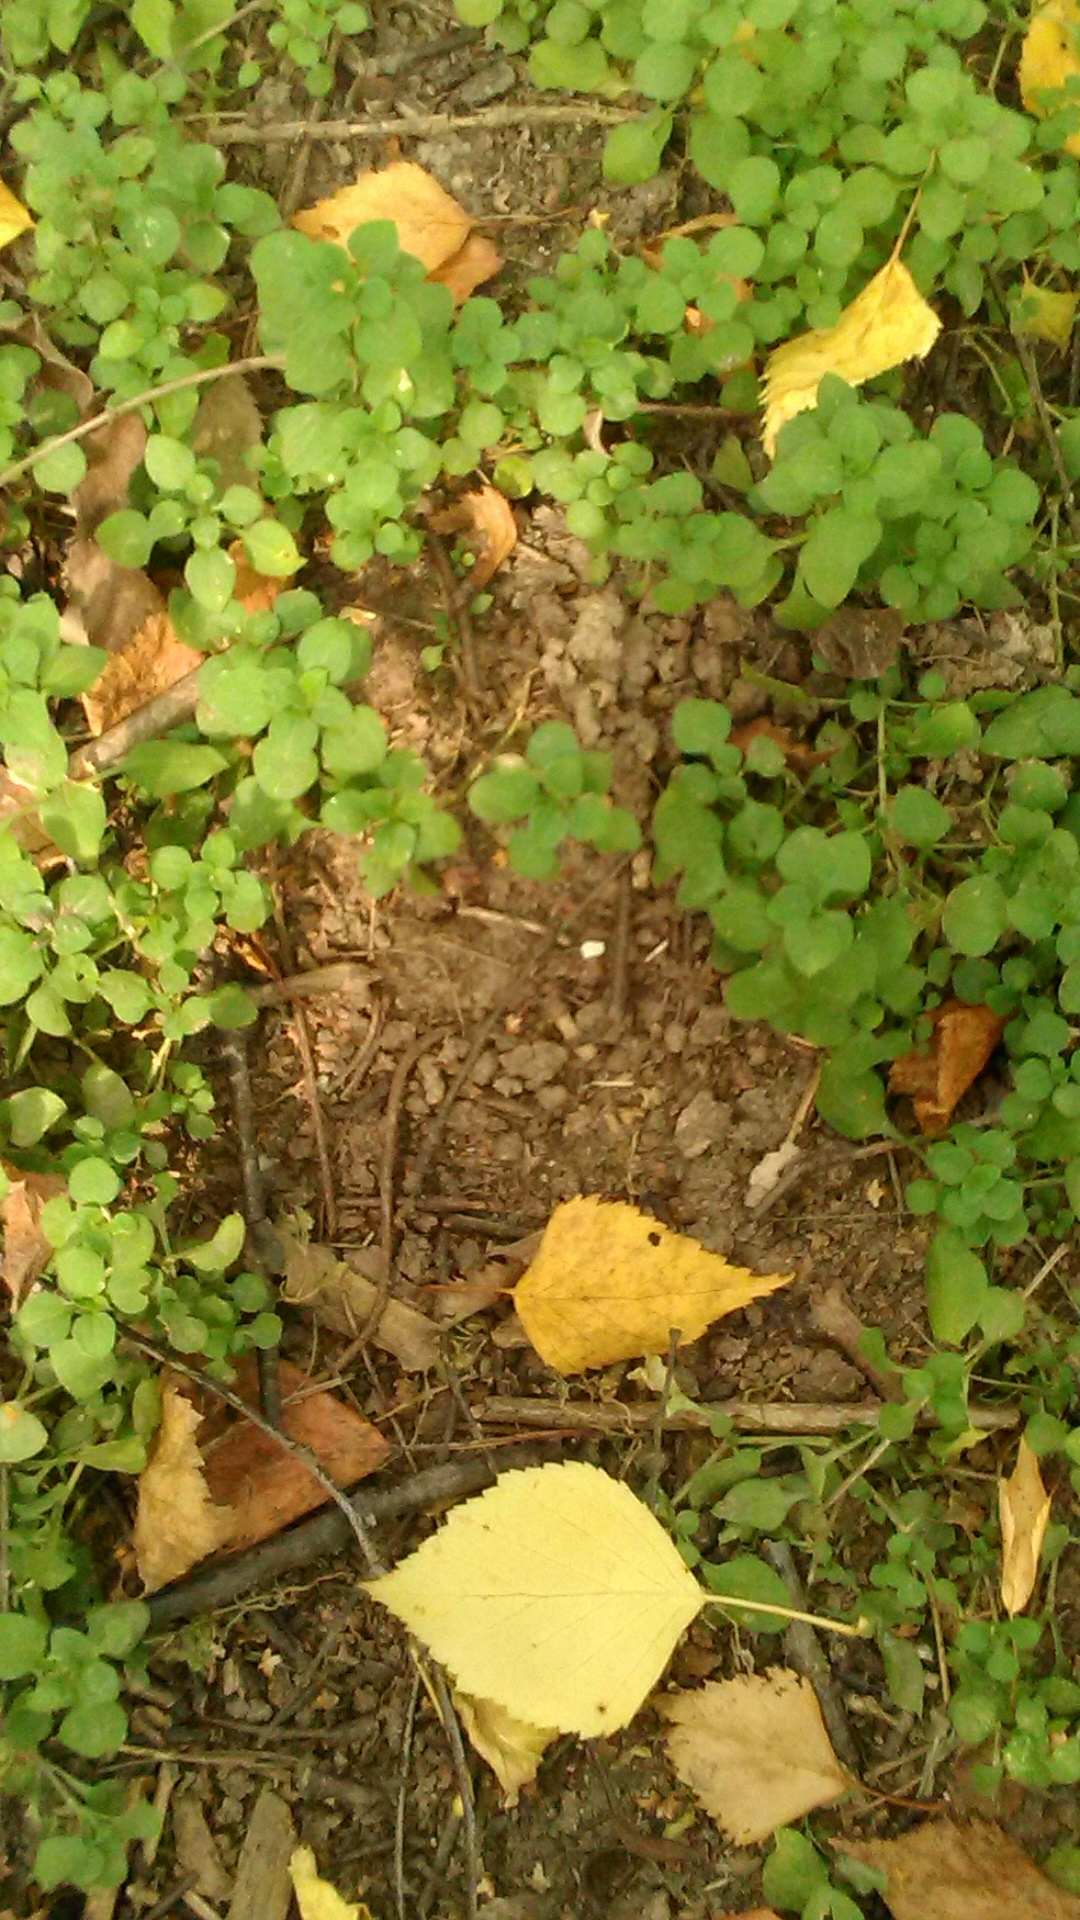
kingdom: Plantae
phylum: Tracheophyta
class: Magnoliopsida
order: Caryophyllales
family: Caryophyllaceae
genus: Stellaria
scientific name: Stellaria media
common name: Common chickweed
